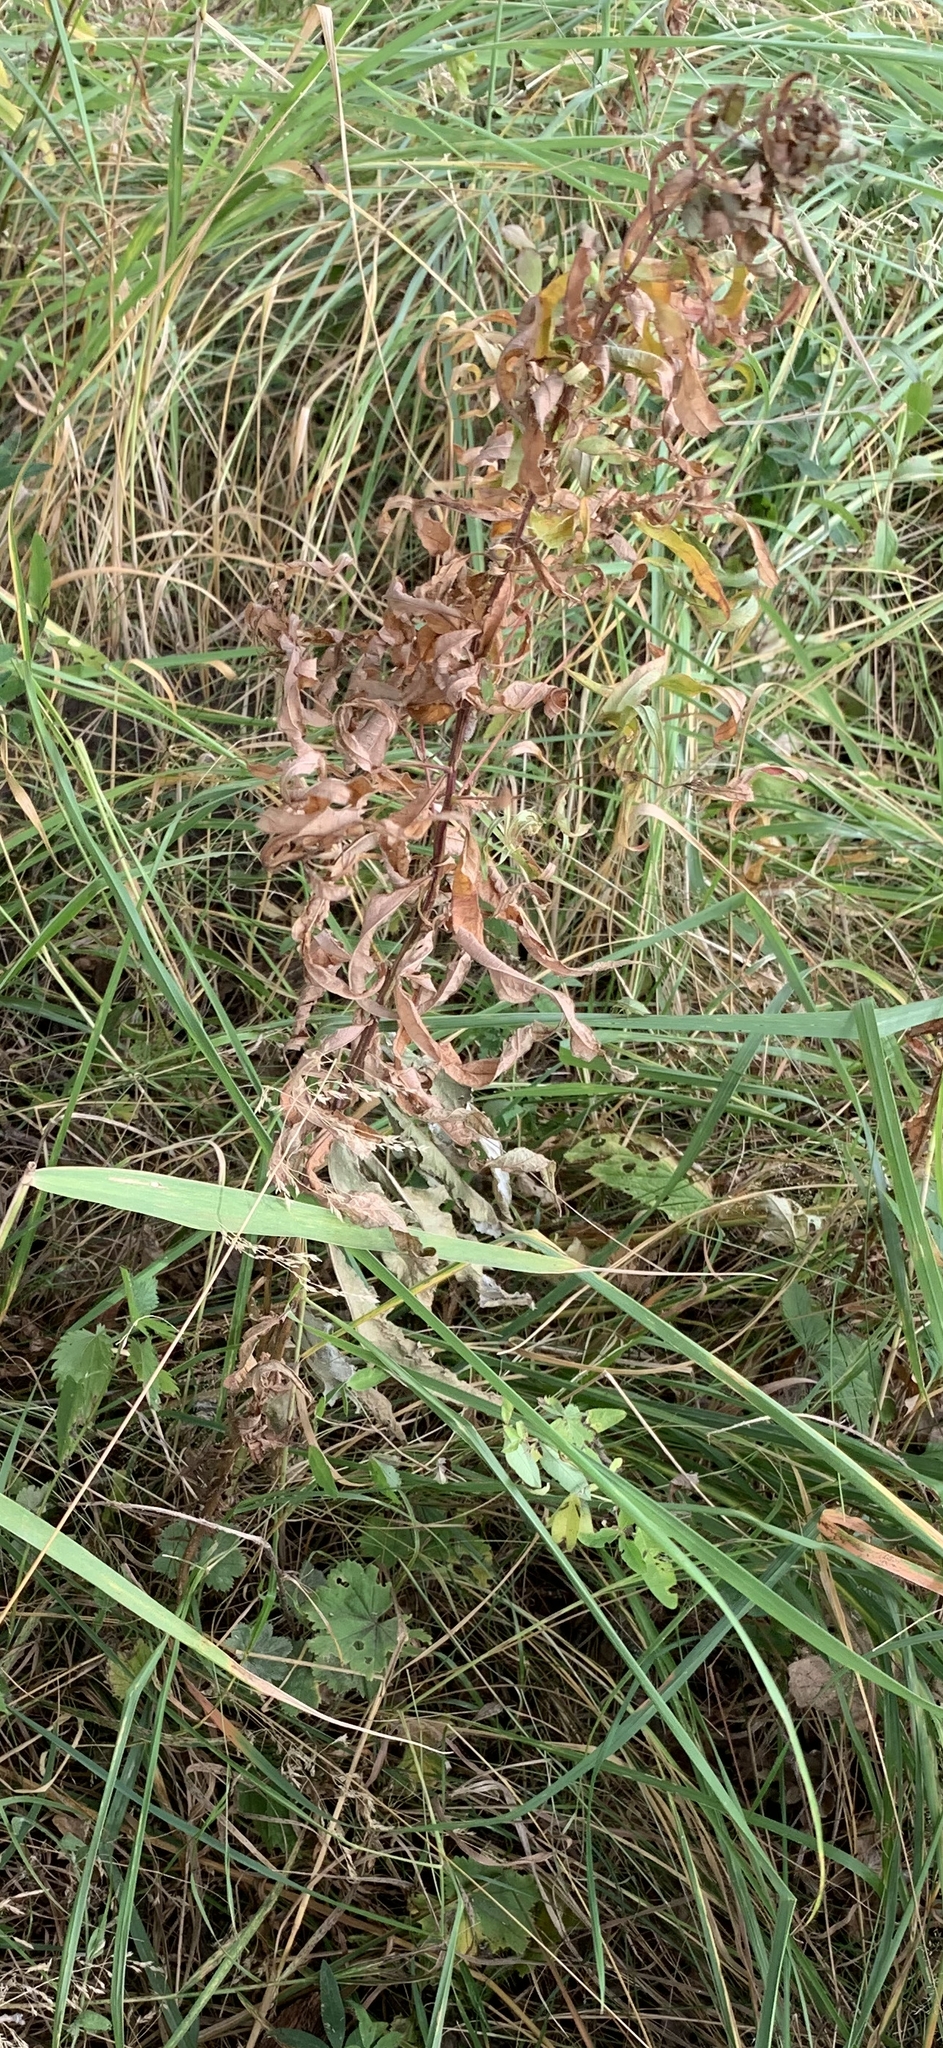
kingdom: Plantae
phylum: Tracheophyta
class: Magnoliopsida
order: Asterales
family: Asteraceae
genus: Cirsium
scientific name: Cirsium arvense
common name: Creeping thistle
